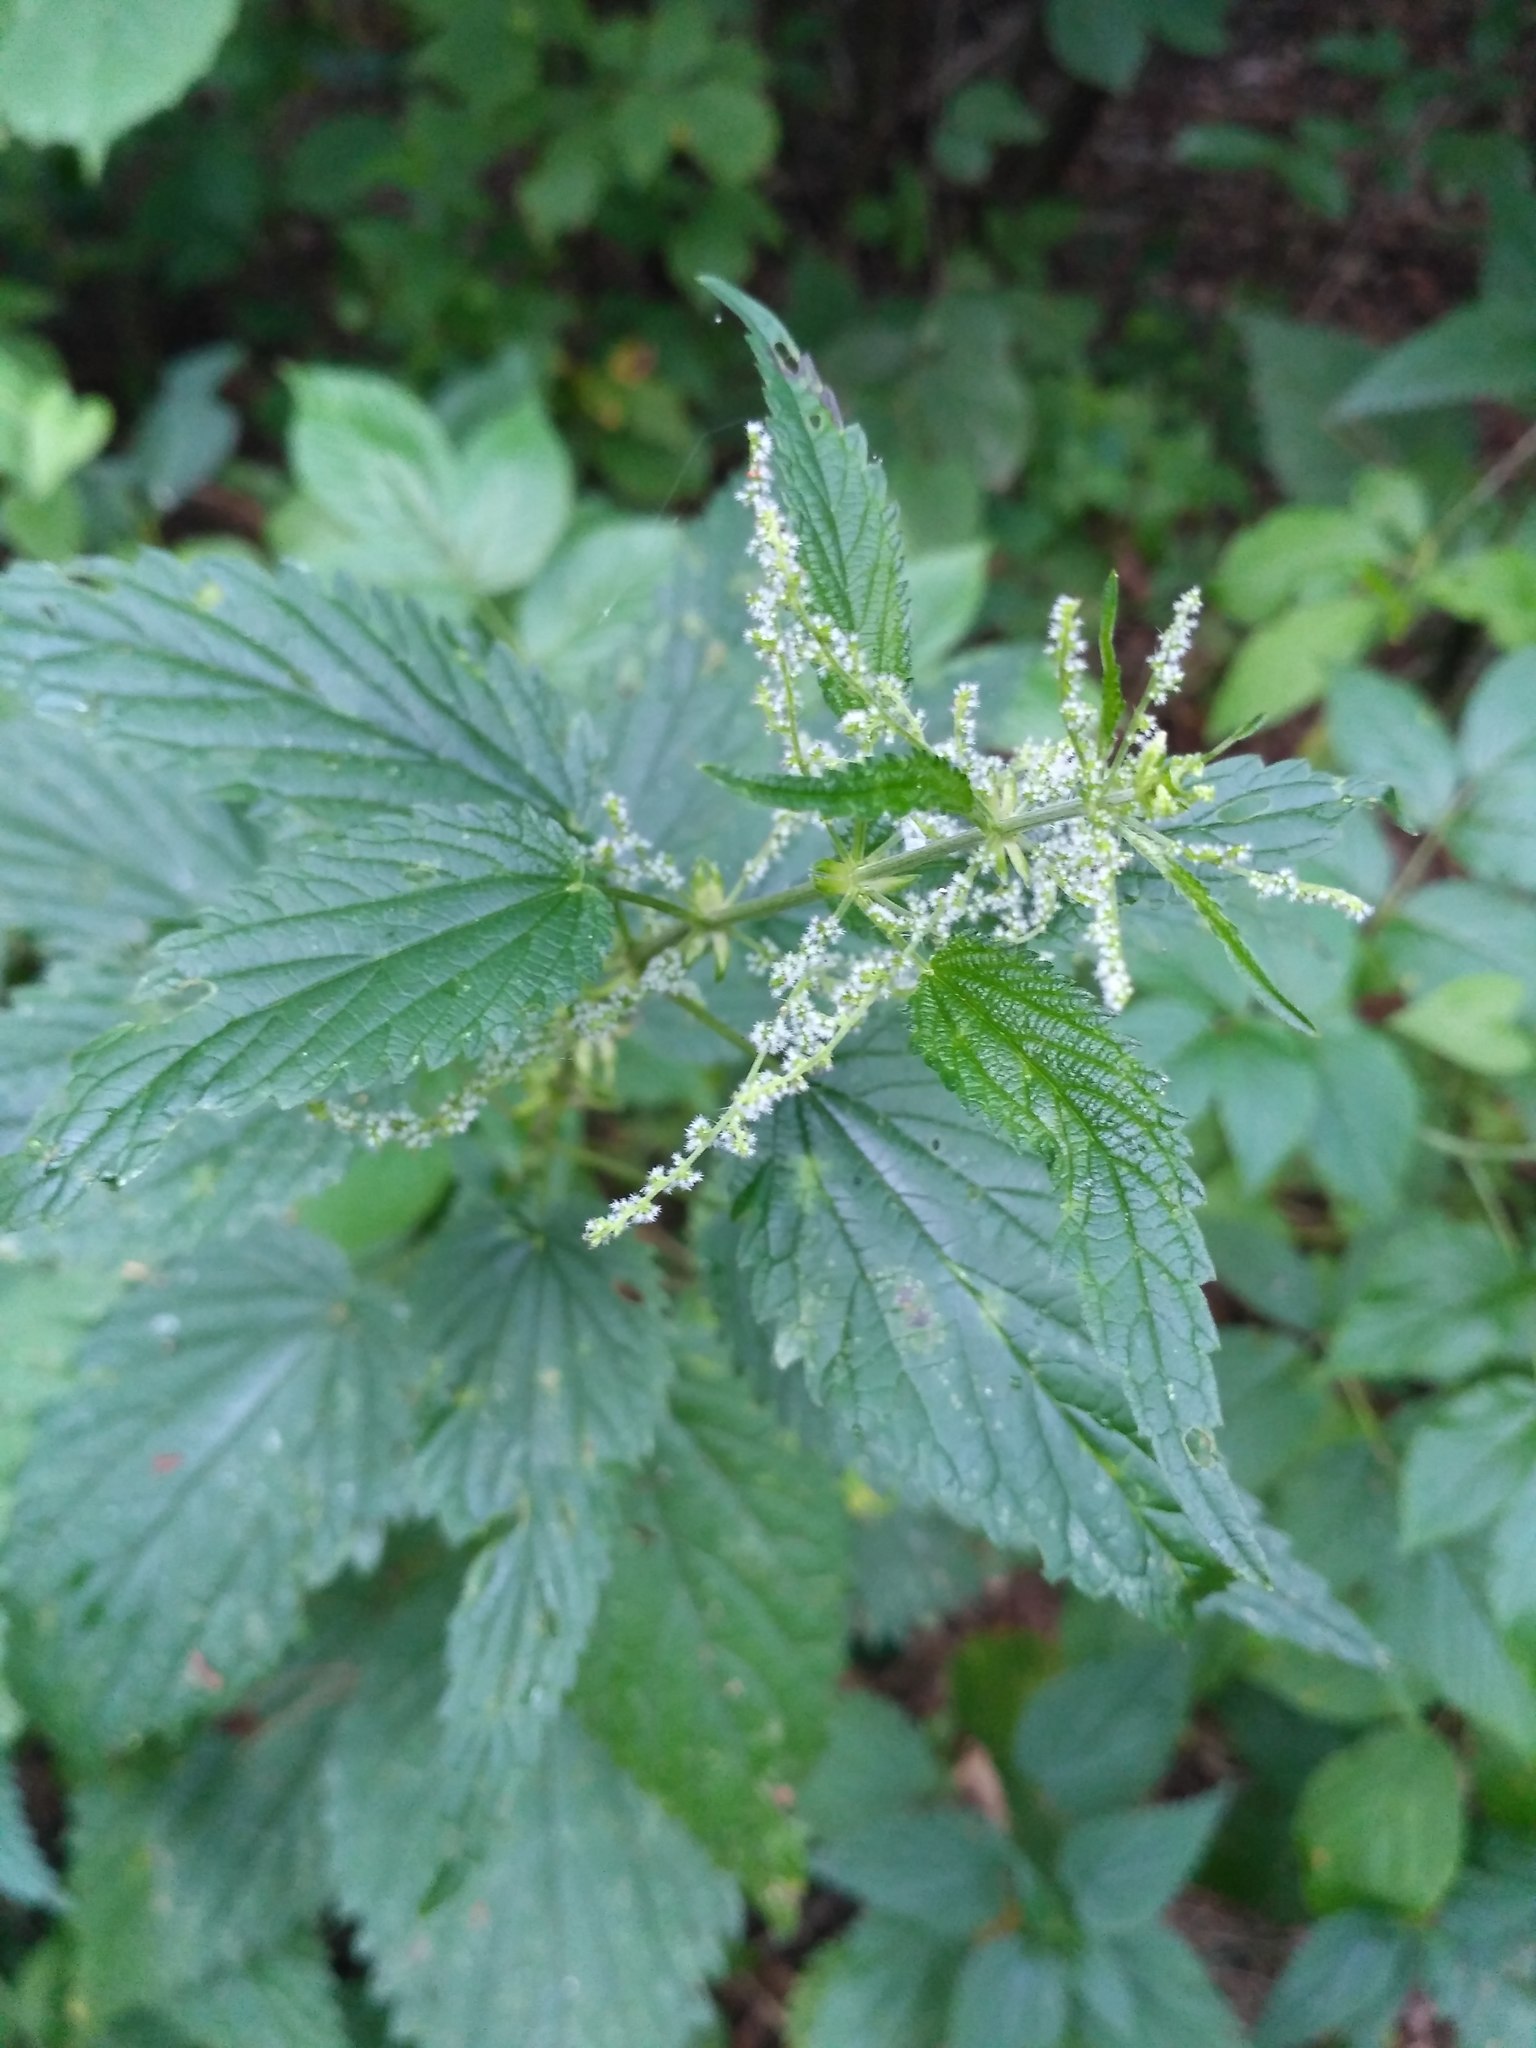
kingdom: Plantae
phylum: Tracheophyta
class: Magnoliopsida
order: Rosales
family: Urticaceae
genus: Urtica
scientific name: Urtica dioica
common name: Common nettle
